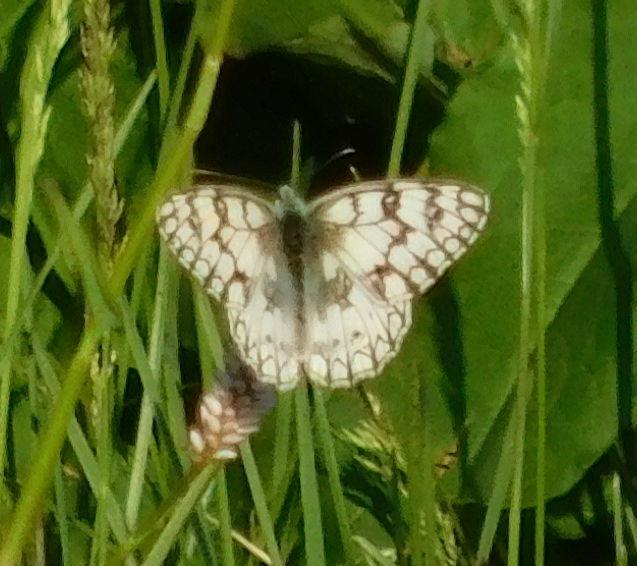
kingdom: Animalia
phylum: Arthropoda
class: Insecta
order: Lepidoptera
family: Nymphalidae
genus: Melanargia
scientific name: Melanargia japygia
